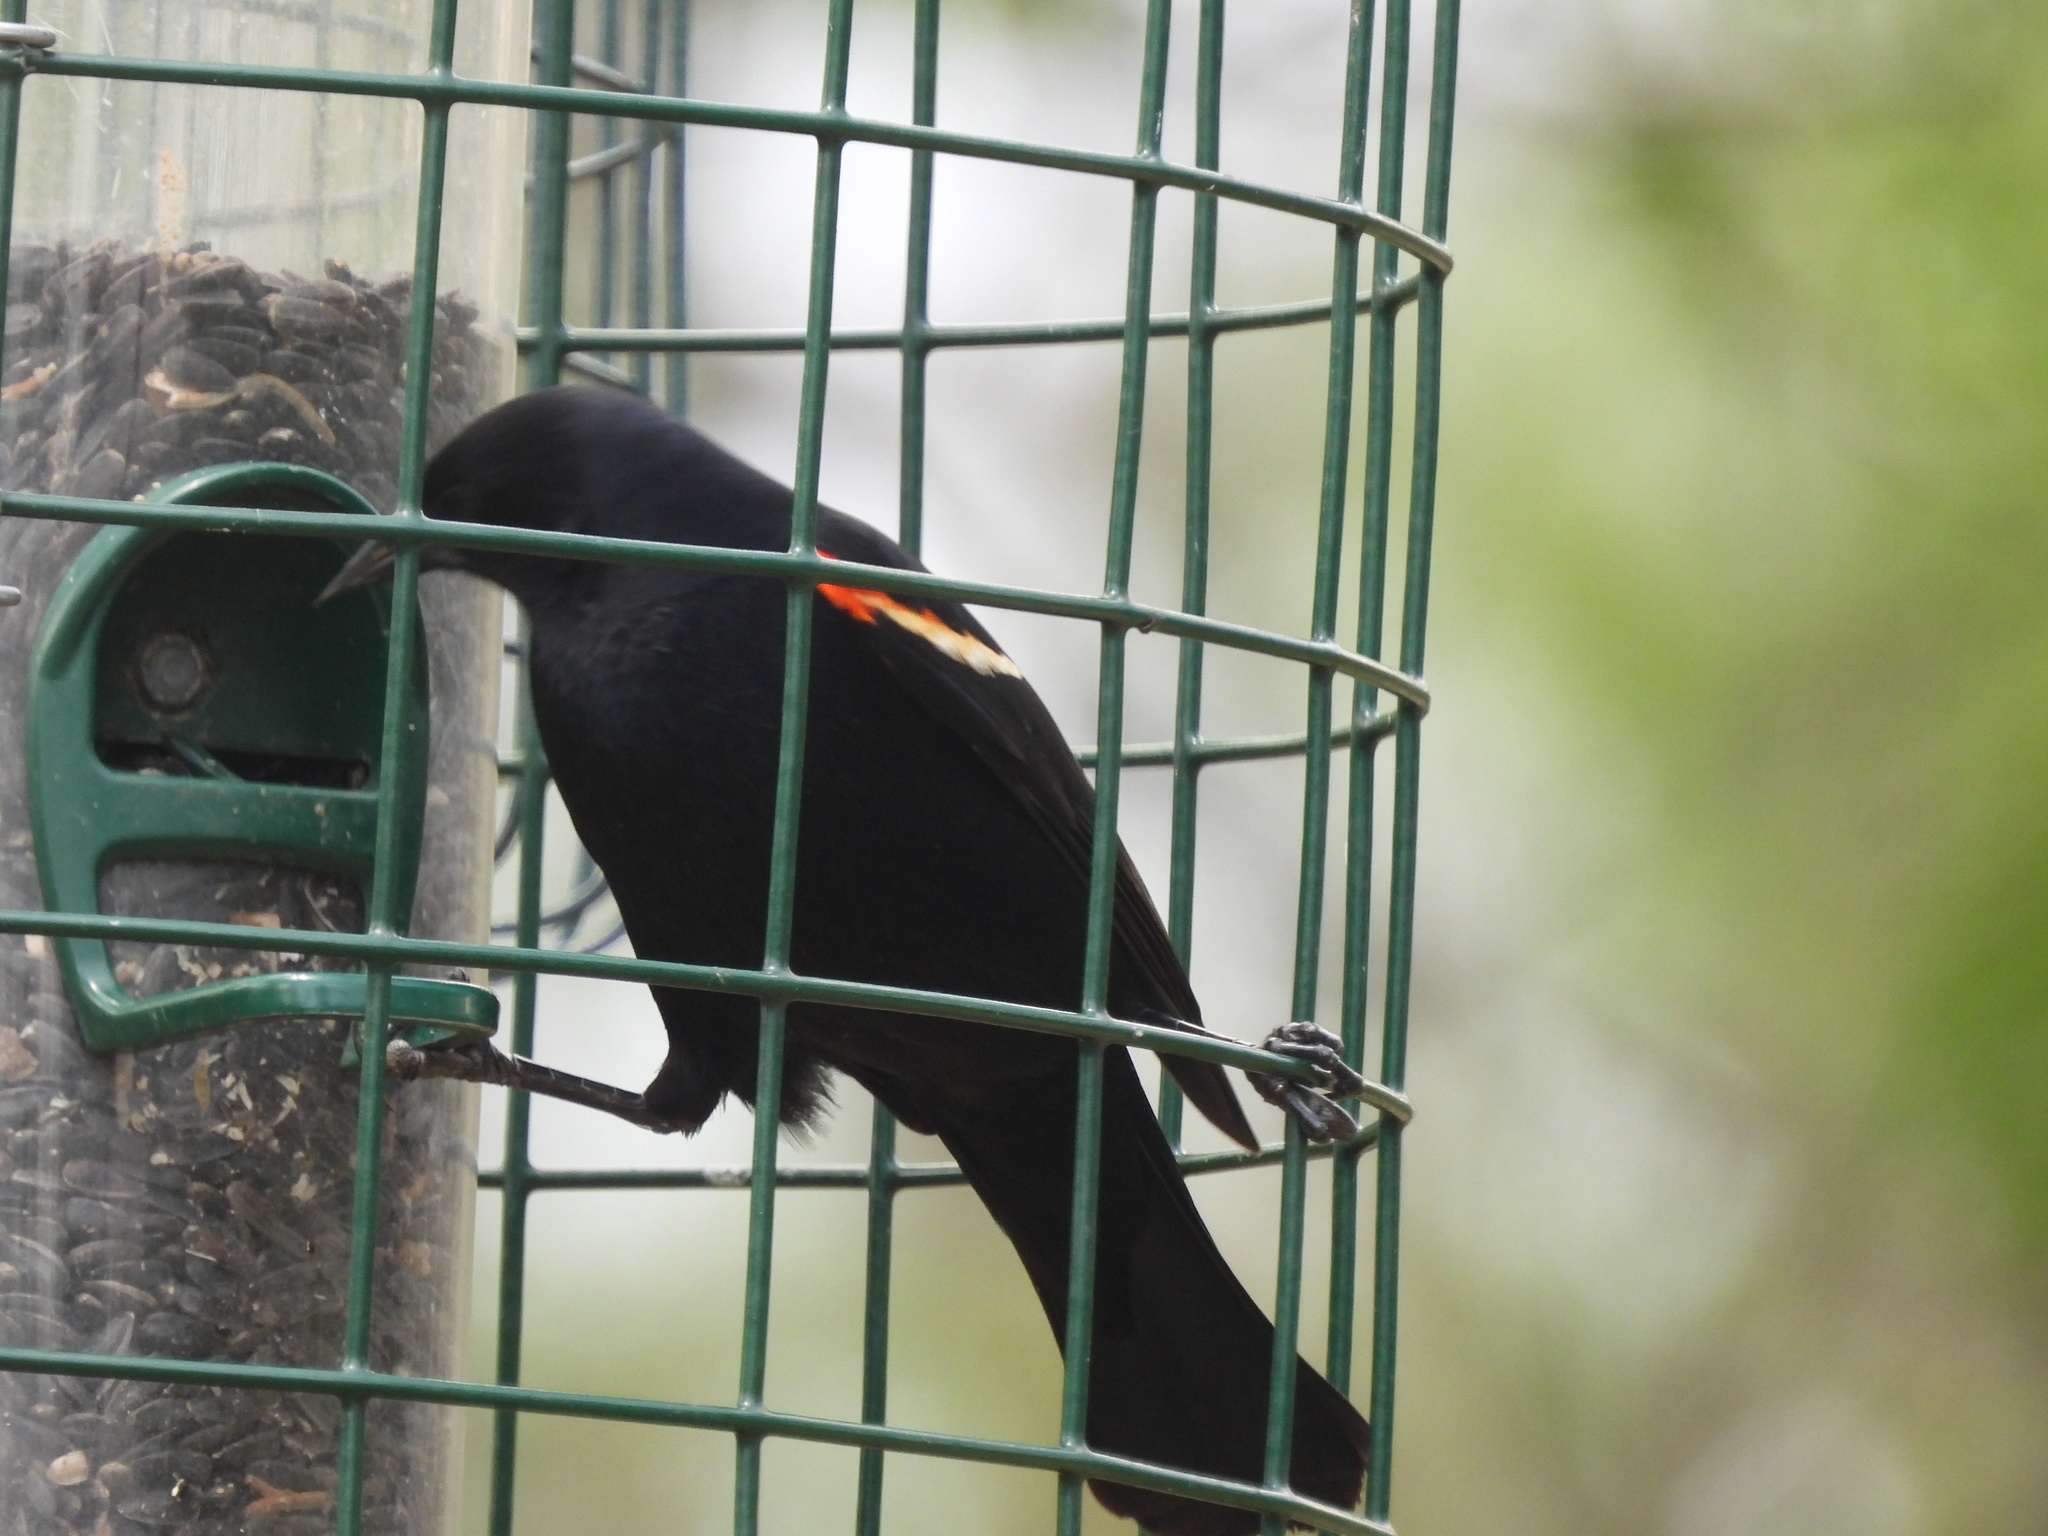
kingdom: Animalia
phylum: Chordata
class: Aves
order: Passeriformes
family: Icteridae
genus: Agelaius
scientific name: Agelaius phoeniceus
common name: Red-winged blackbird
